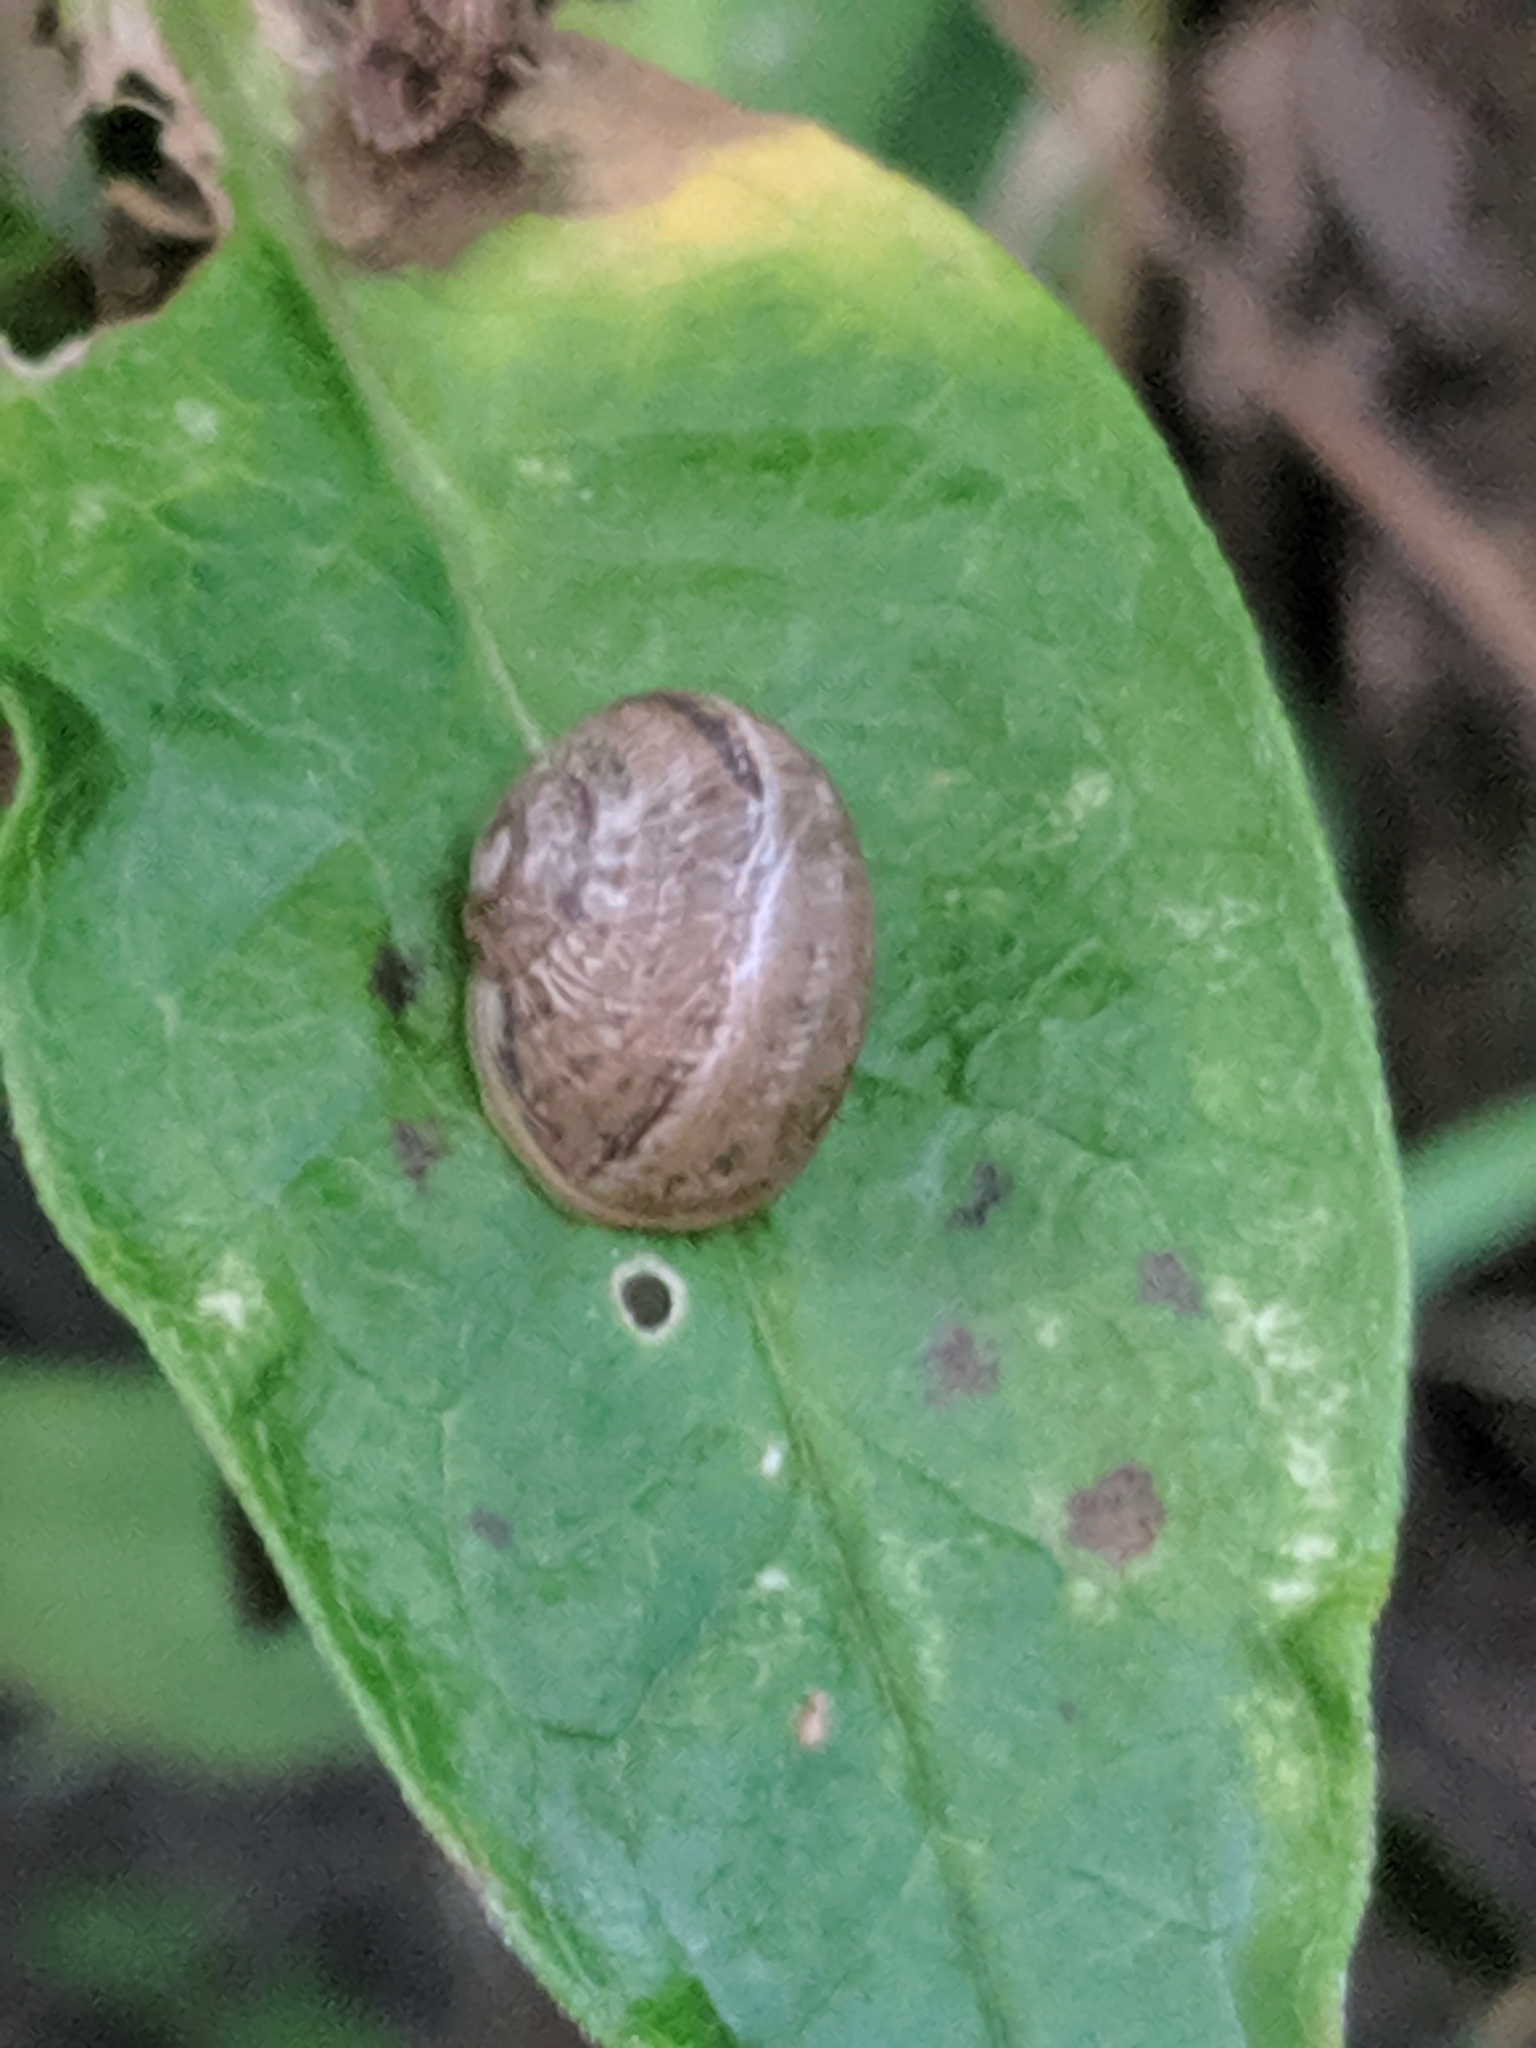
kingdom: Animalia
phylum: Mollusca
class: Gastropoda
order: Stylommatophora
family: Helicidae
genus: Cornu
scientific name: Cornu aspersum
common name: Brown garden snail
